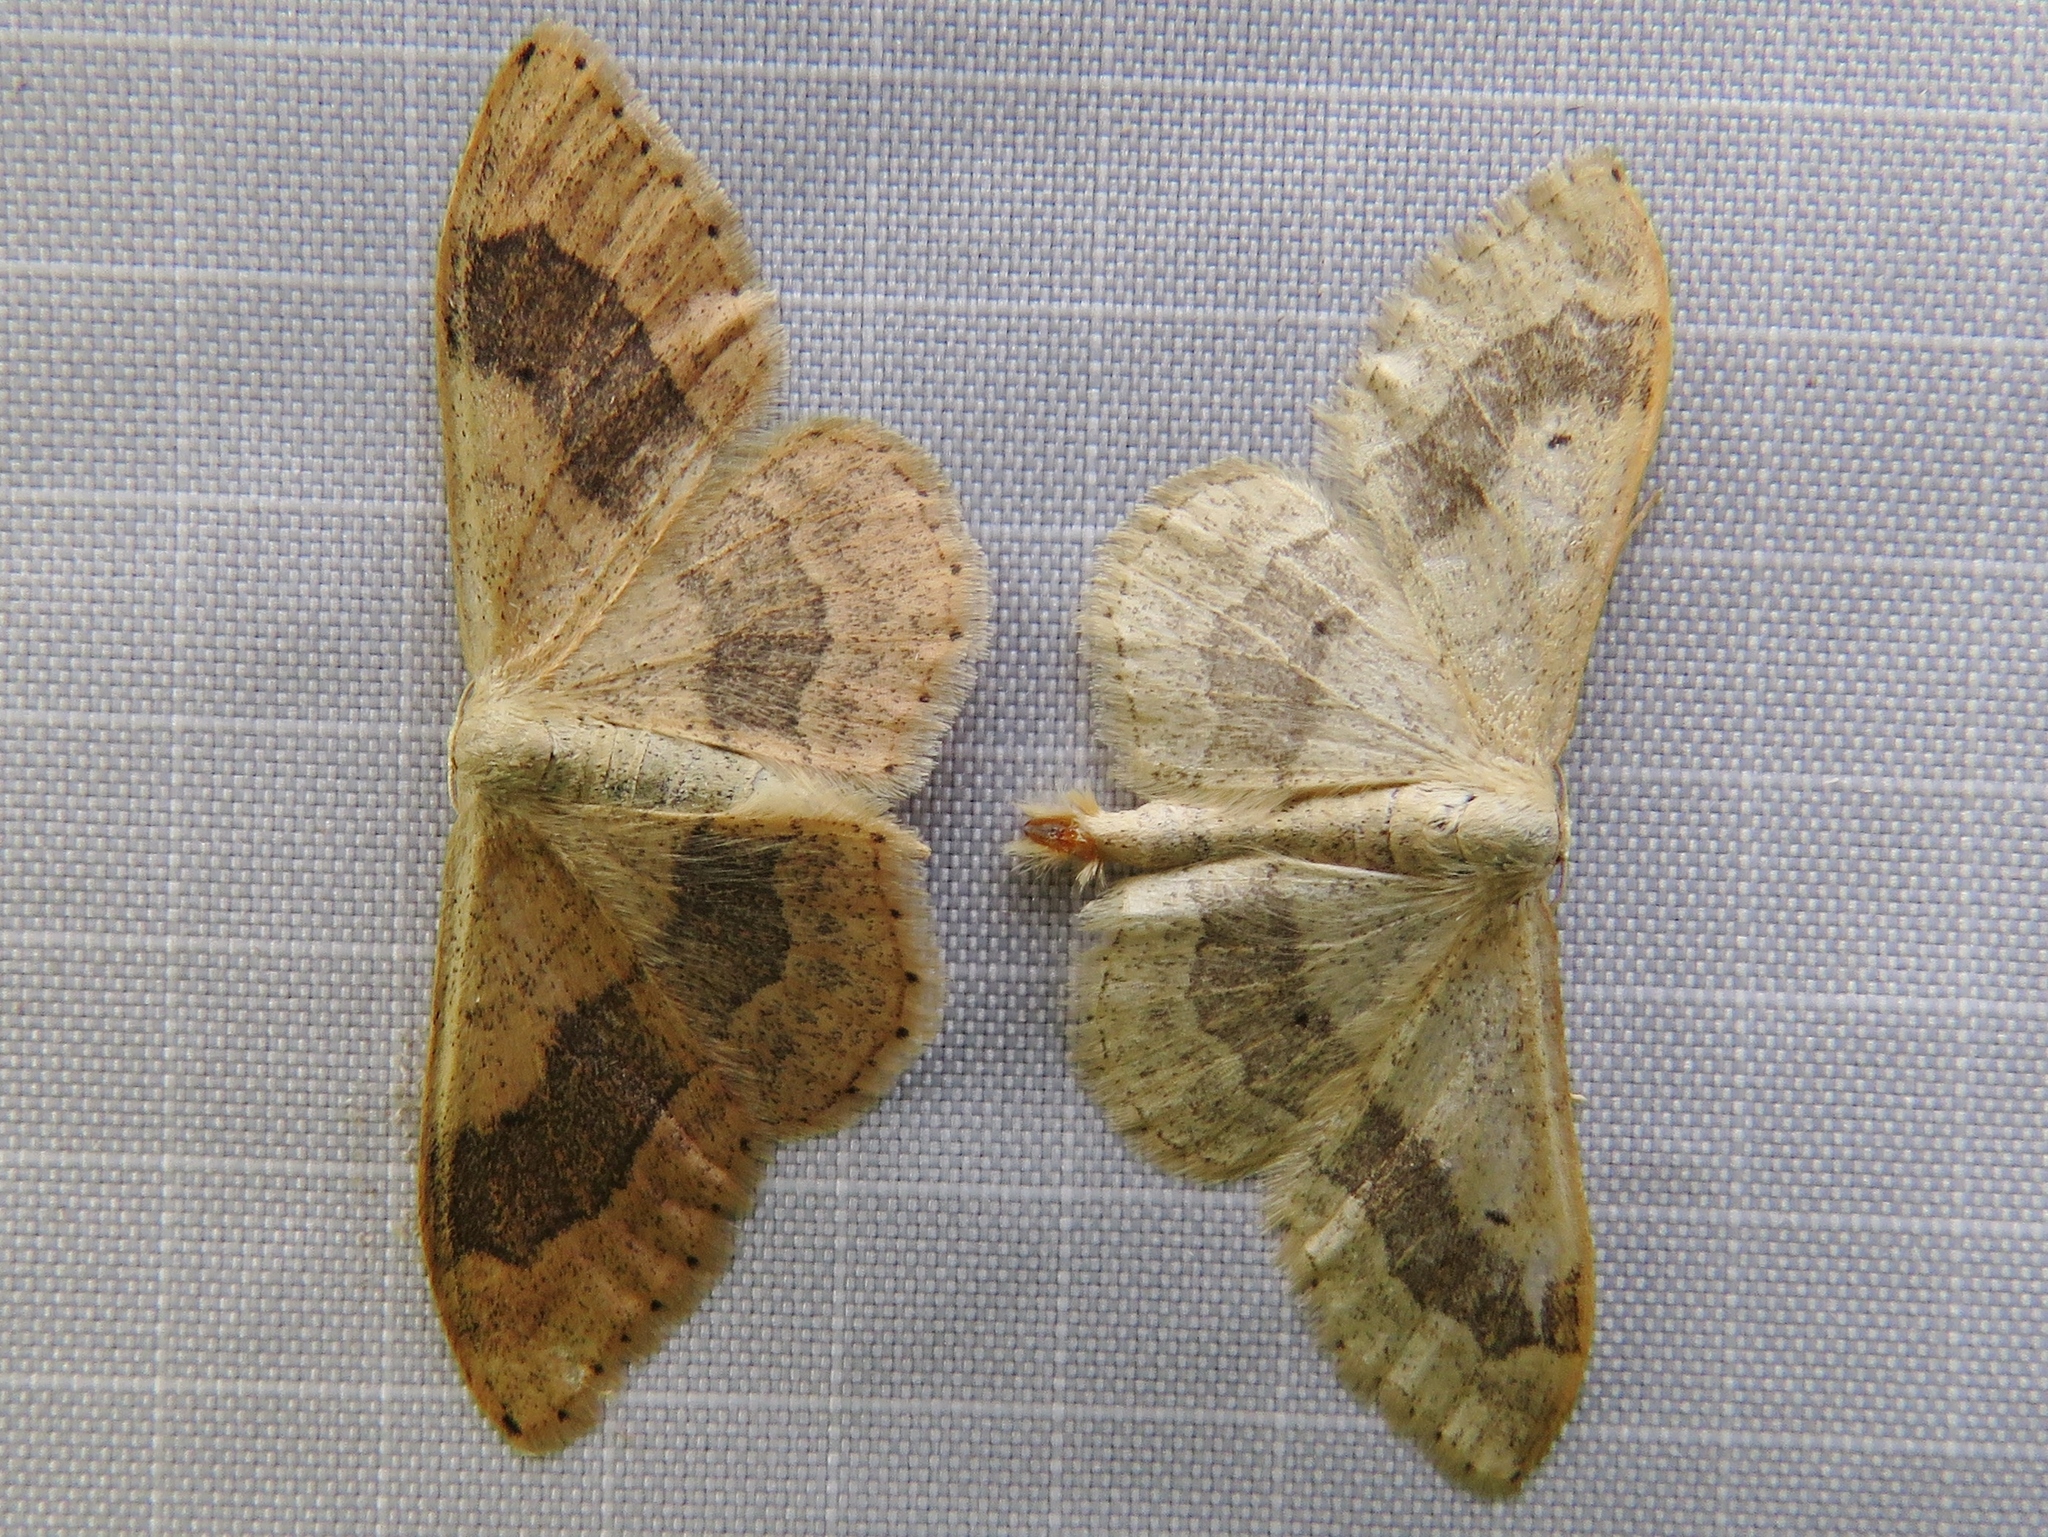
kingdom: Animalia
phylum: Arthropoda
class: Insecta
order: Lepidoptera
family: Geometridae
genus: Idaea
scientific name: Idaea aversata
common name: Riband wave
